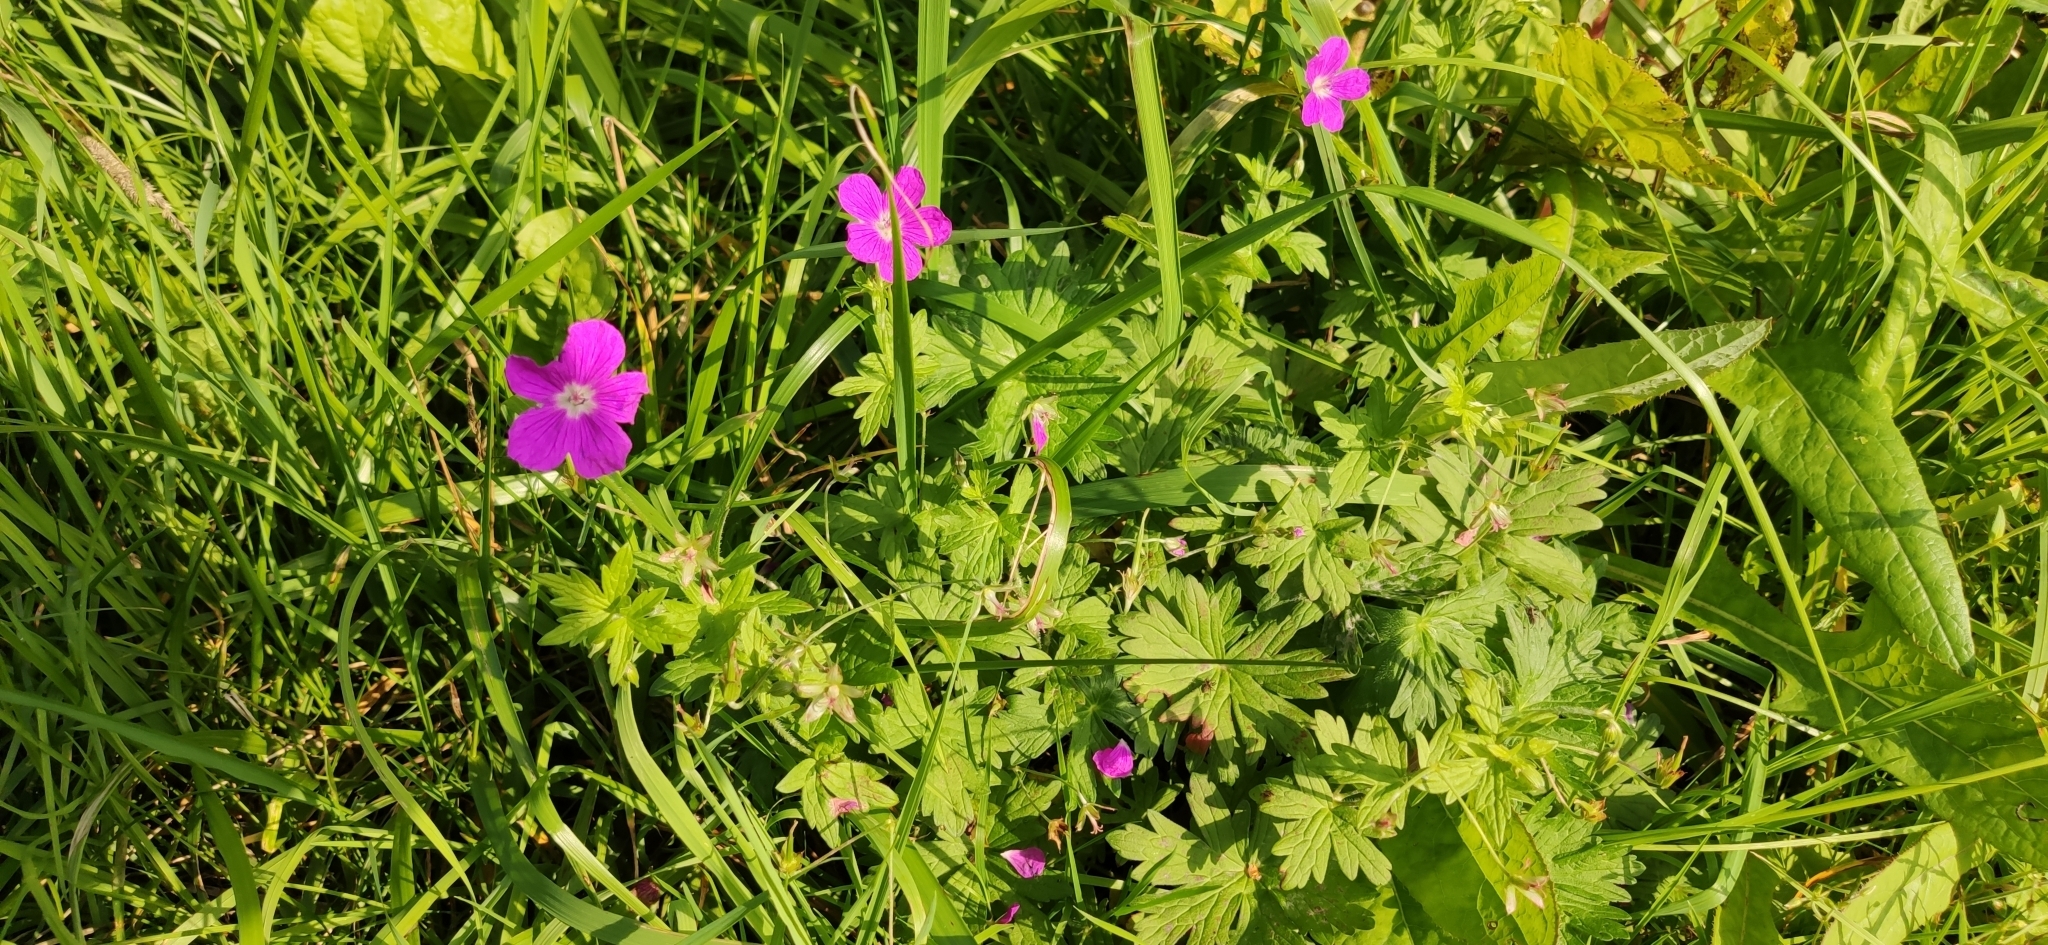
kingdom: Plantae
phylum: Tracheophyta
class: Magnoliopsida
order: Geraniales
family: Geraniaceae
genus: Geranium
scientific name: Geranium palustre
